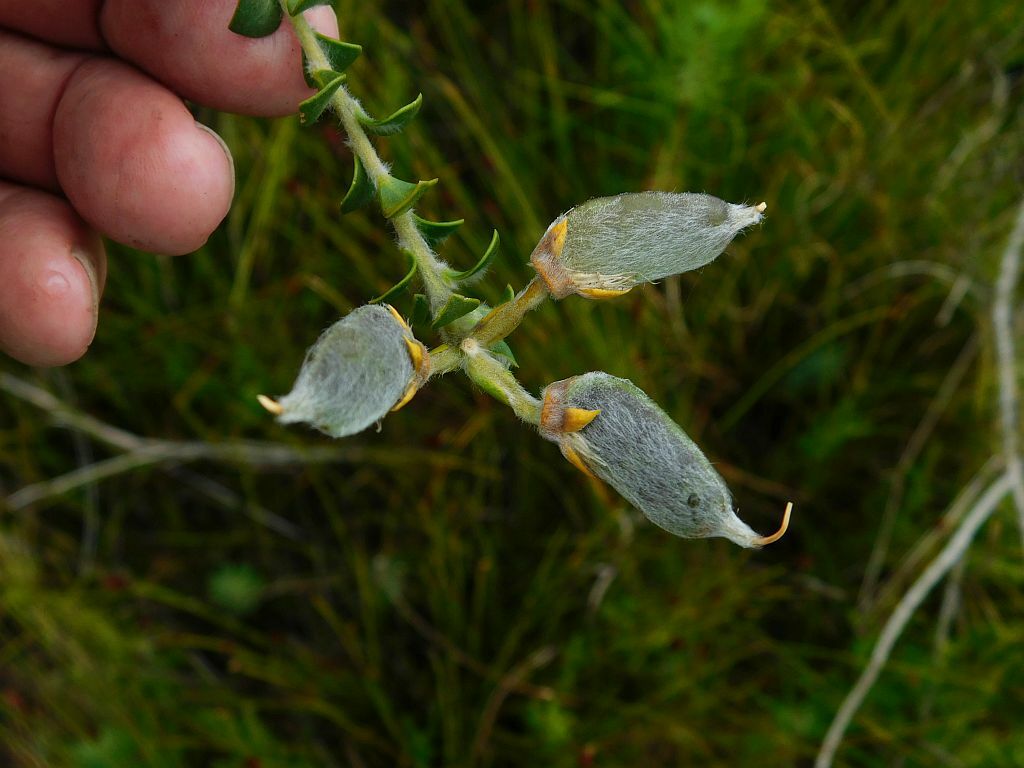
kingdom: Plantae
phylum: Tracheophyta
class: Magnoliopsida
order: Fabales
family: Fabaceae
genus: Liparia
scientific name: Liparia latifolia
